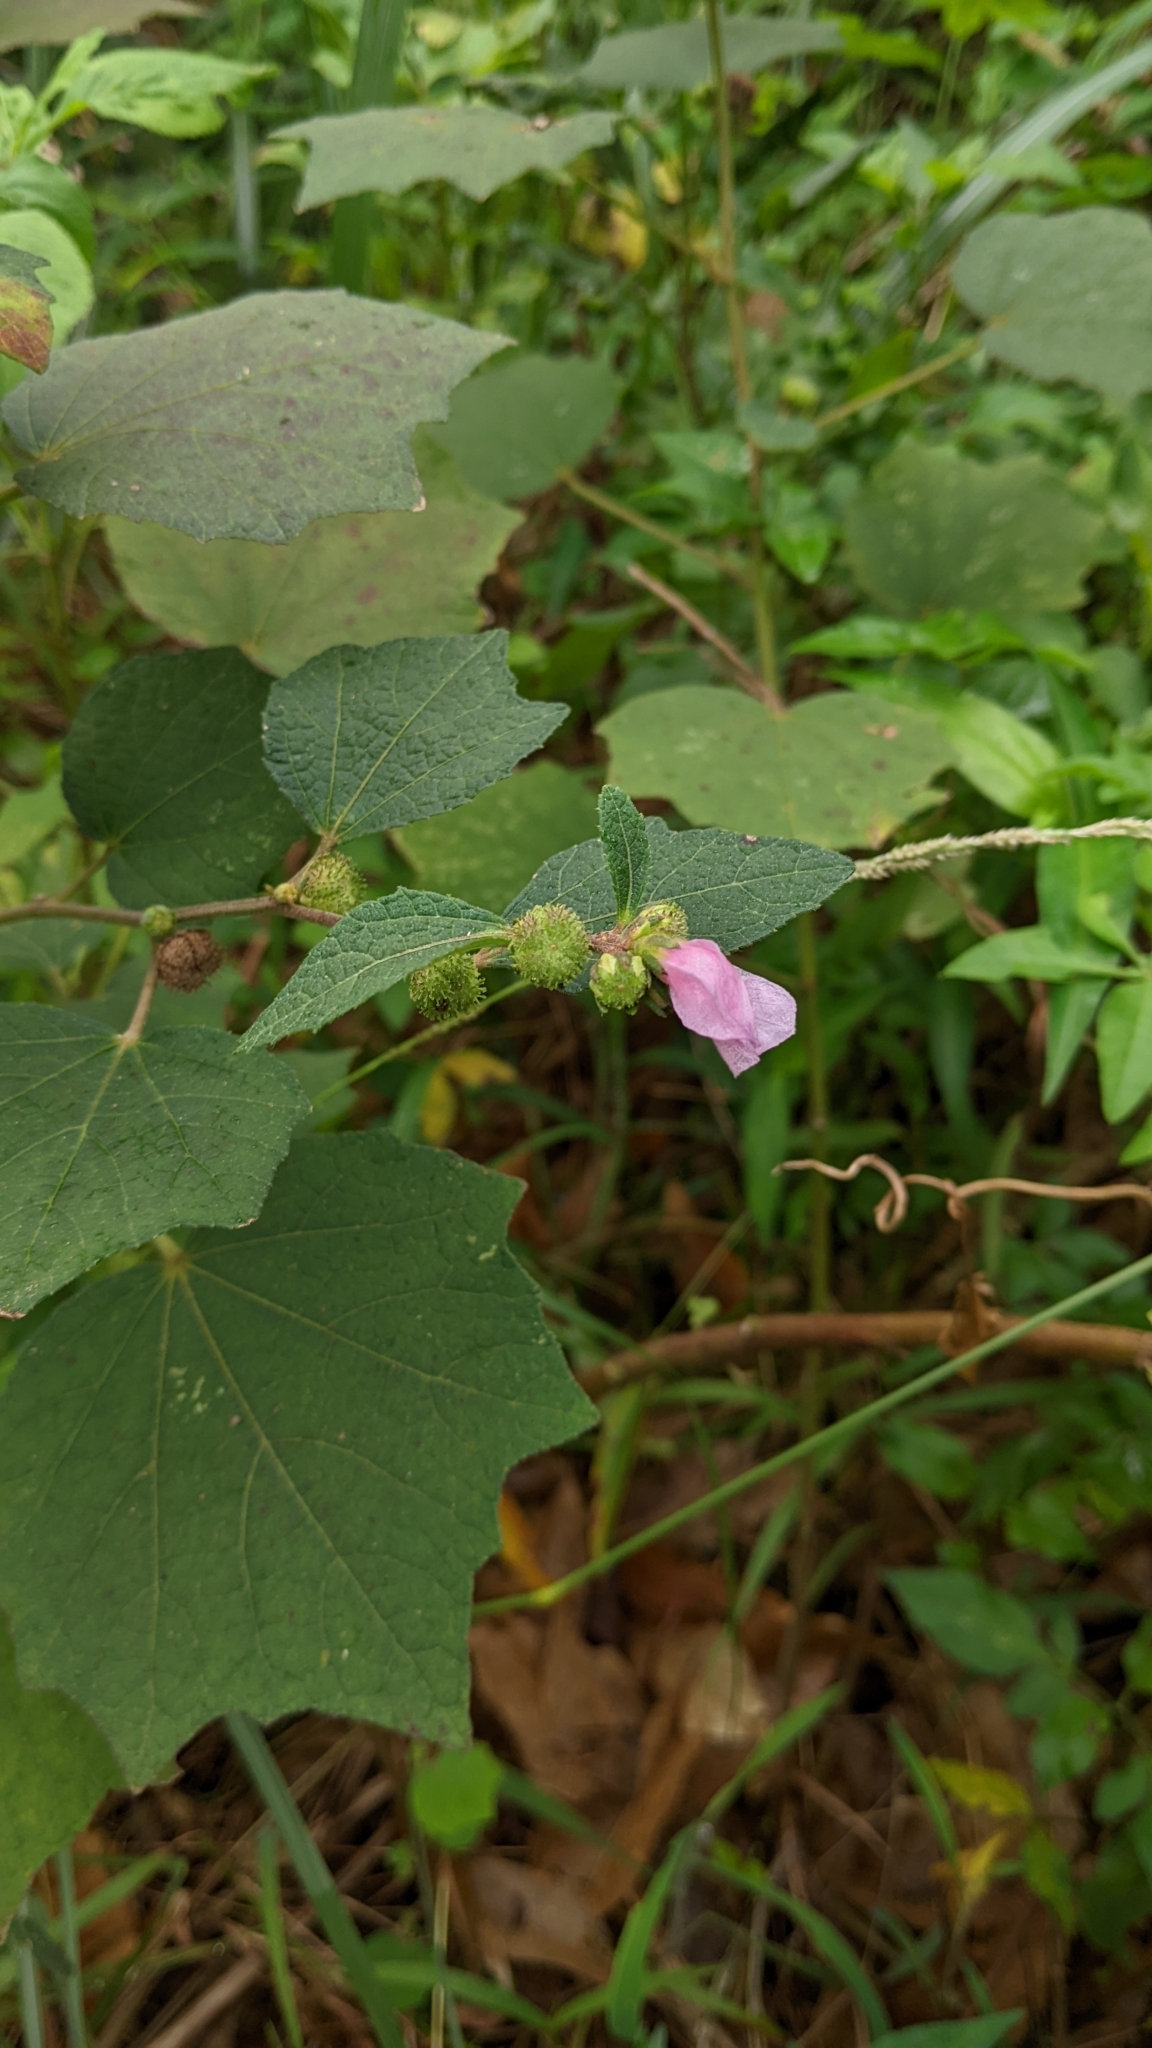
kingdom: Plantae
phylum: Tracheophyta
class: Magnoliopsida
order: Malvales
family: Malvaceae
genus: Urena
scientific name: Urena lobata
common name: Caesarweed
